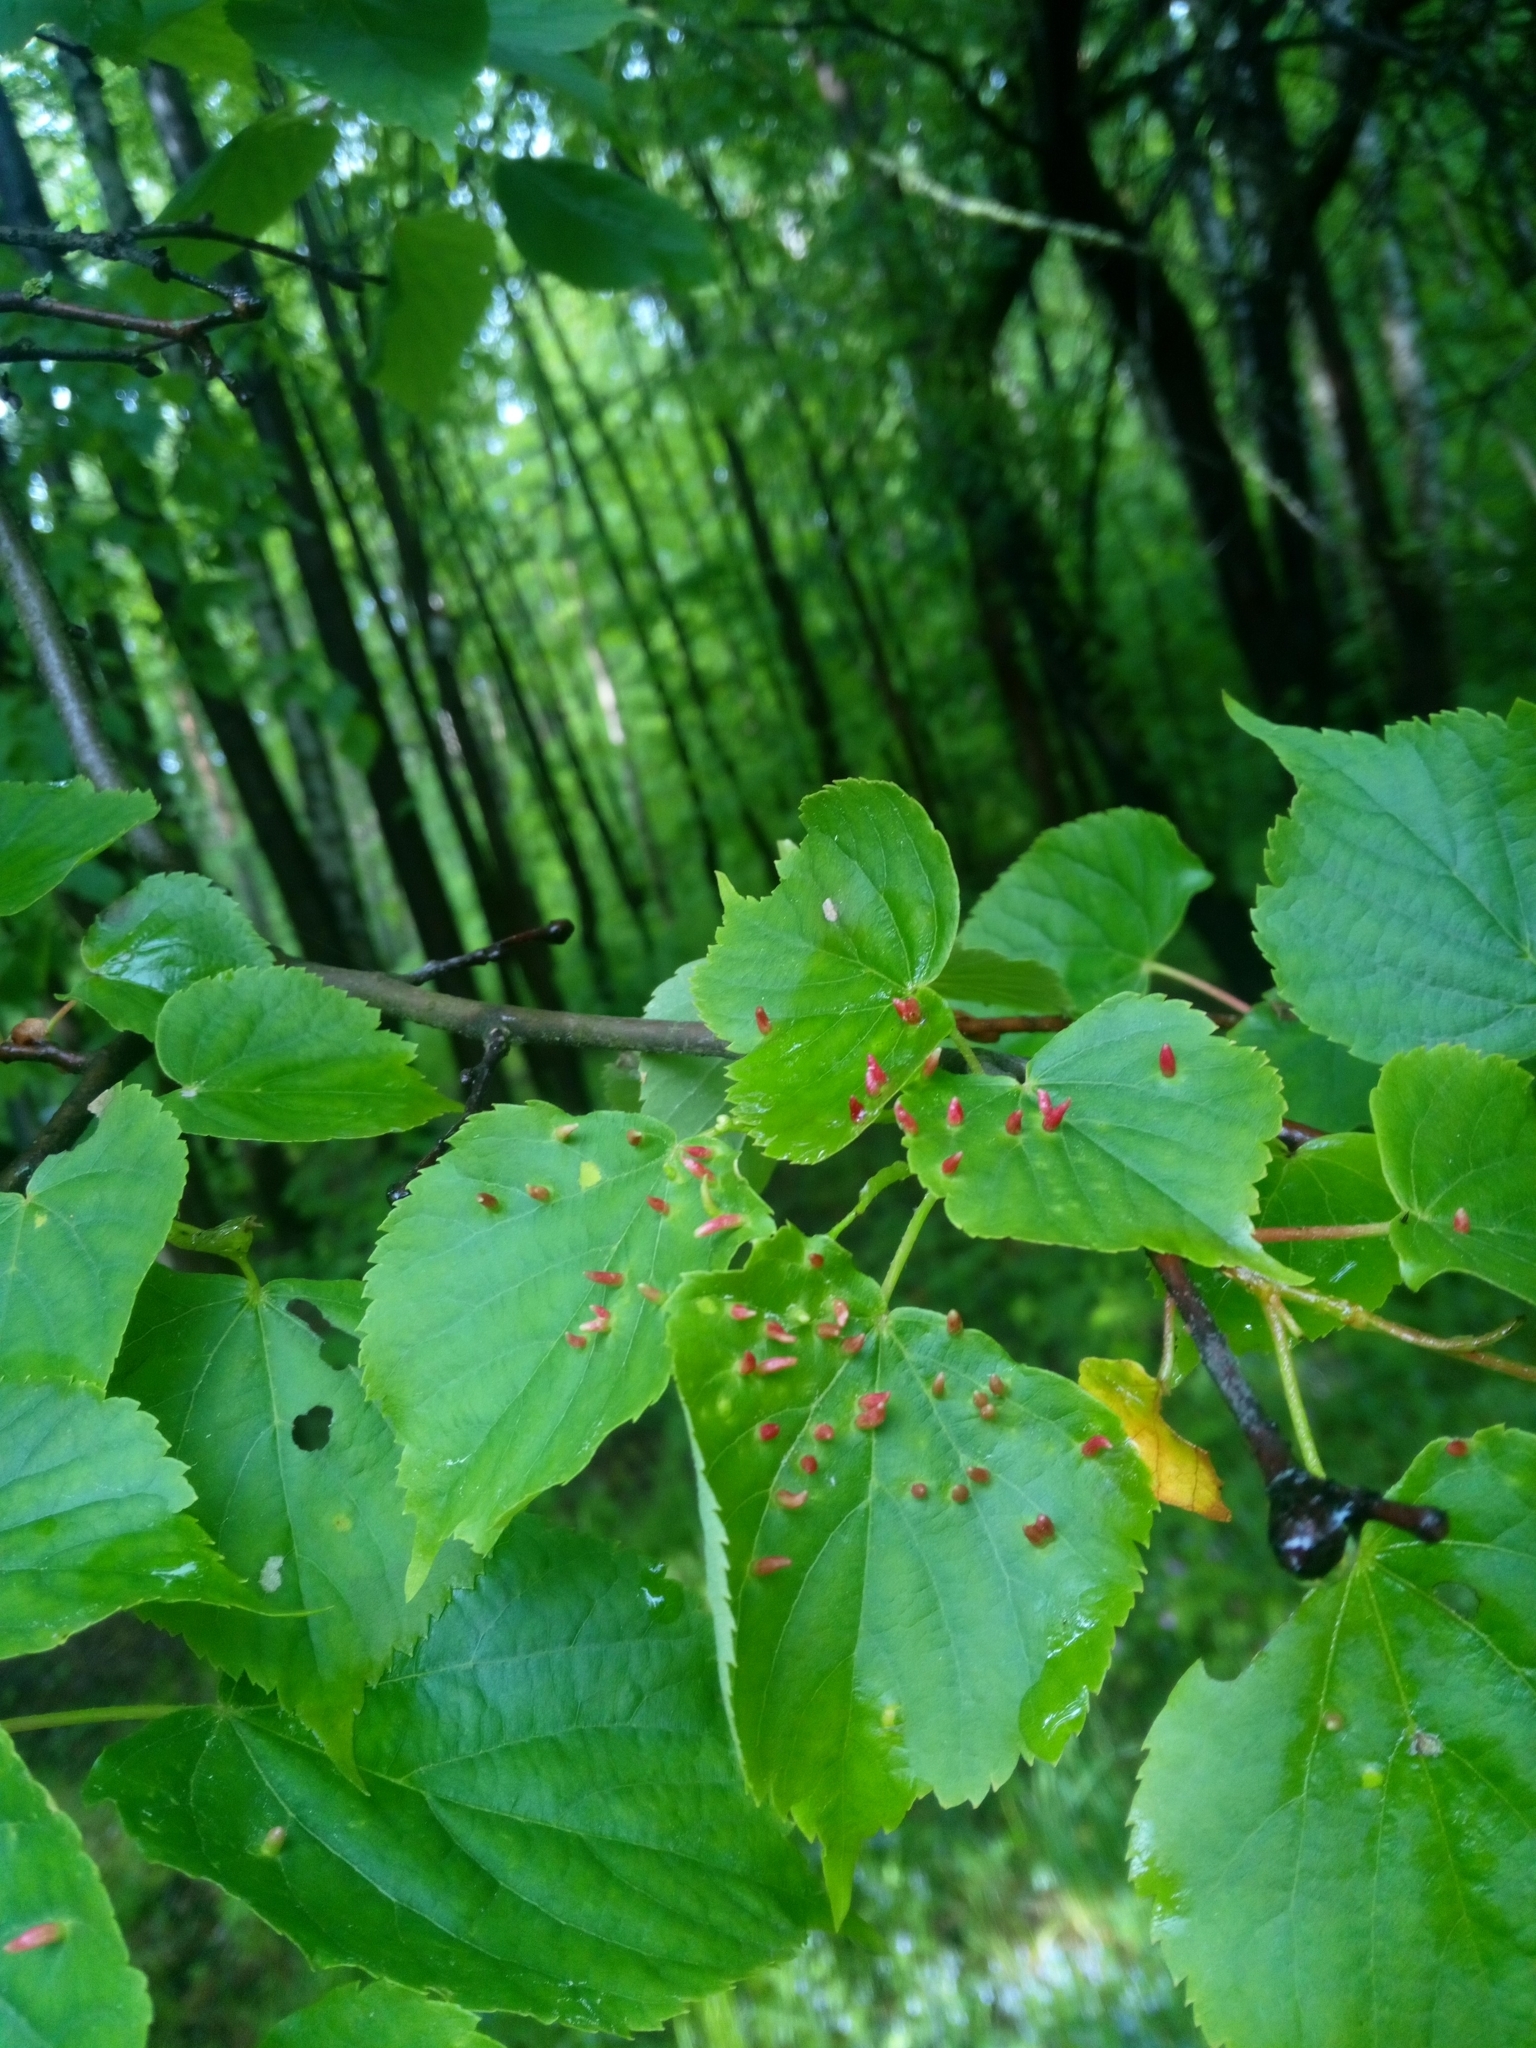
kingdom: Animalia
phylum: Arthropoda
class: Arachnida
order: Trombidiformes
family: Eriophyidae
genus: Eriophyes
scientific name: Eriophyes tiliae
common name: Red nail gall mite
